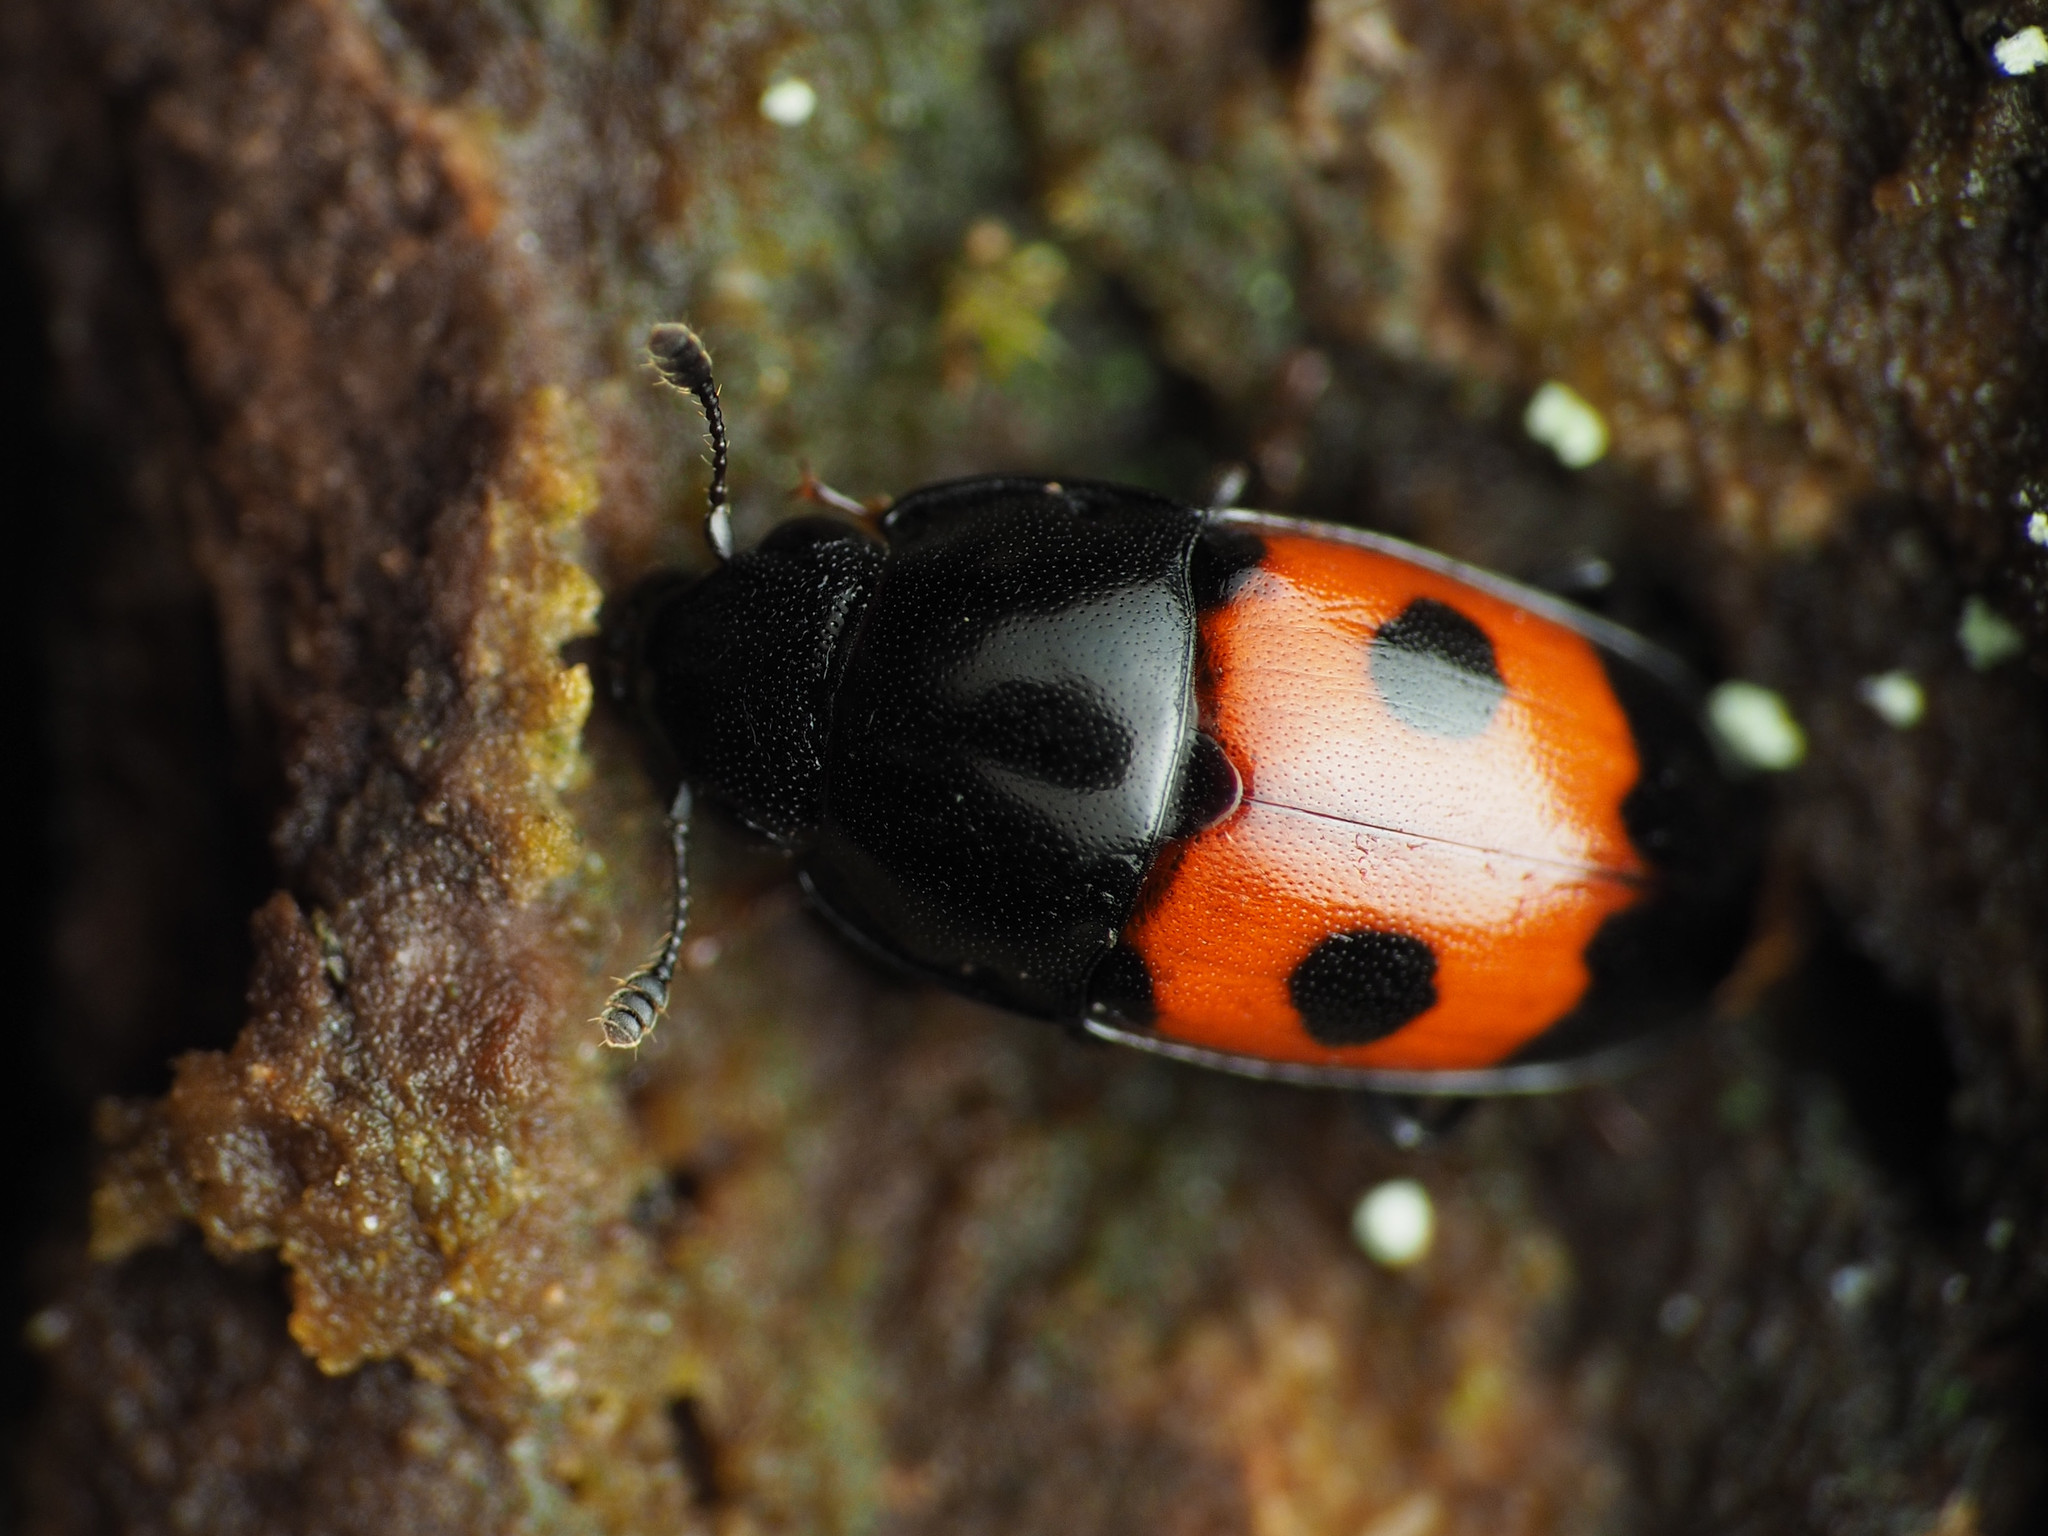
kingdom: Animalia
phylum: Arthropoda
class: Insecta
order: Coleoptera
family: Nitidulidae
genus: Glischrochilus
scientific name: Glischrochilus sanguinolentus
